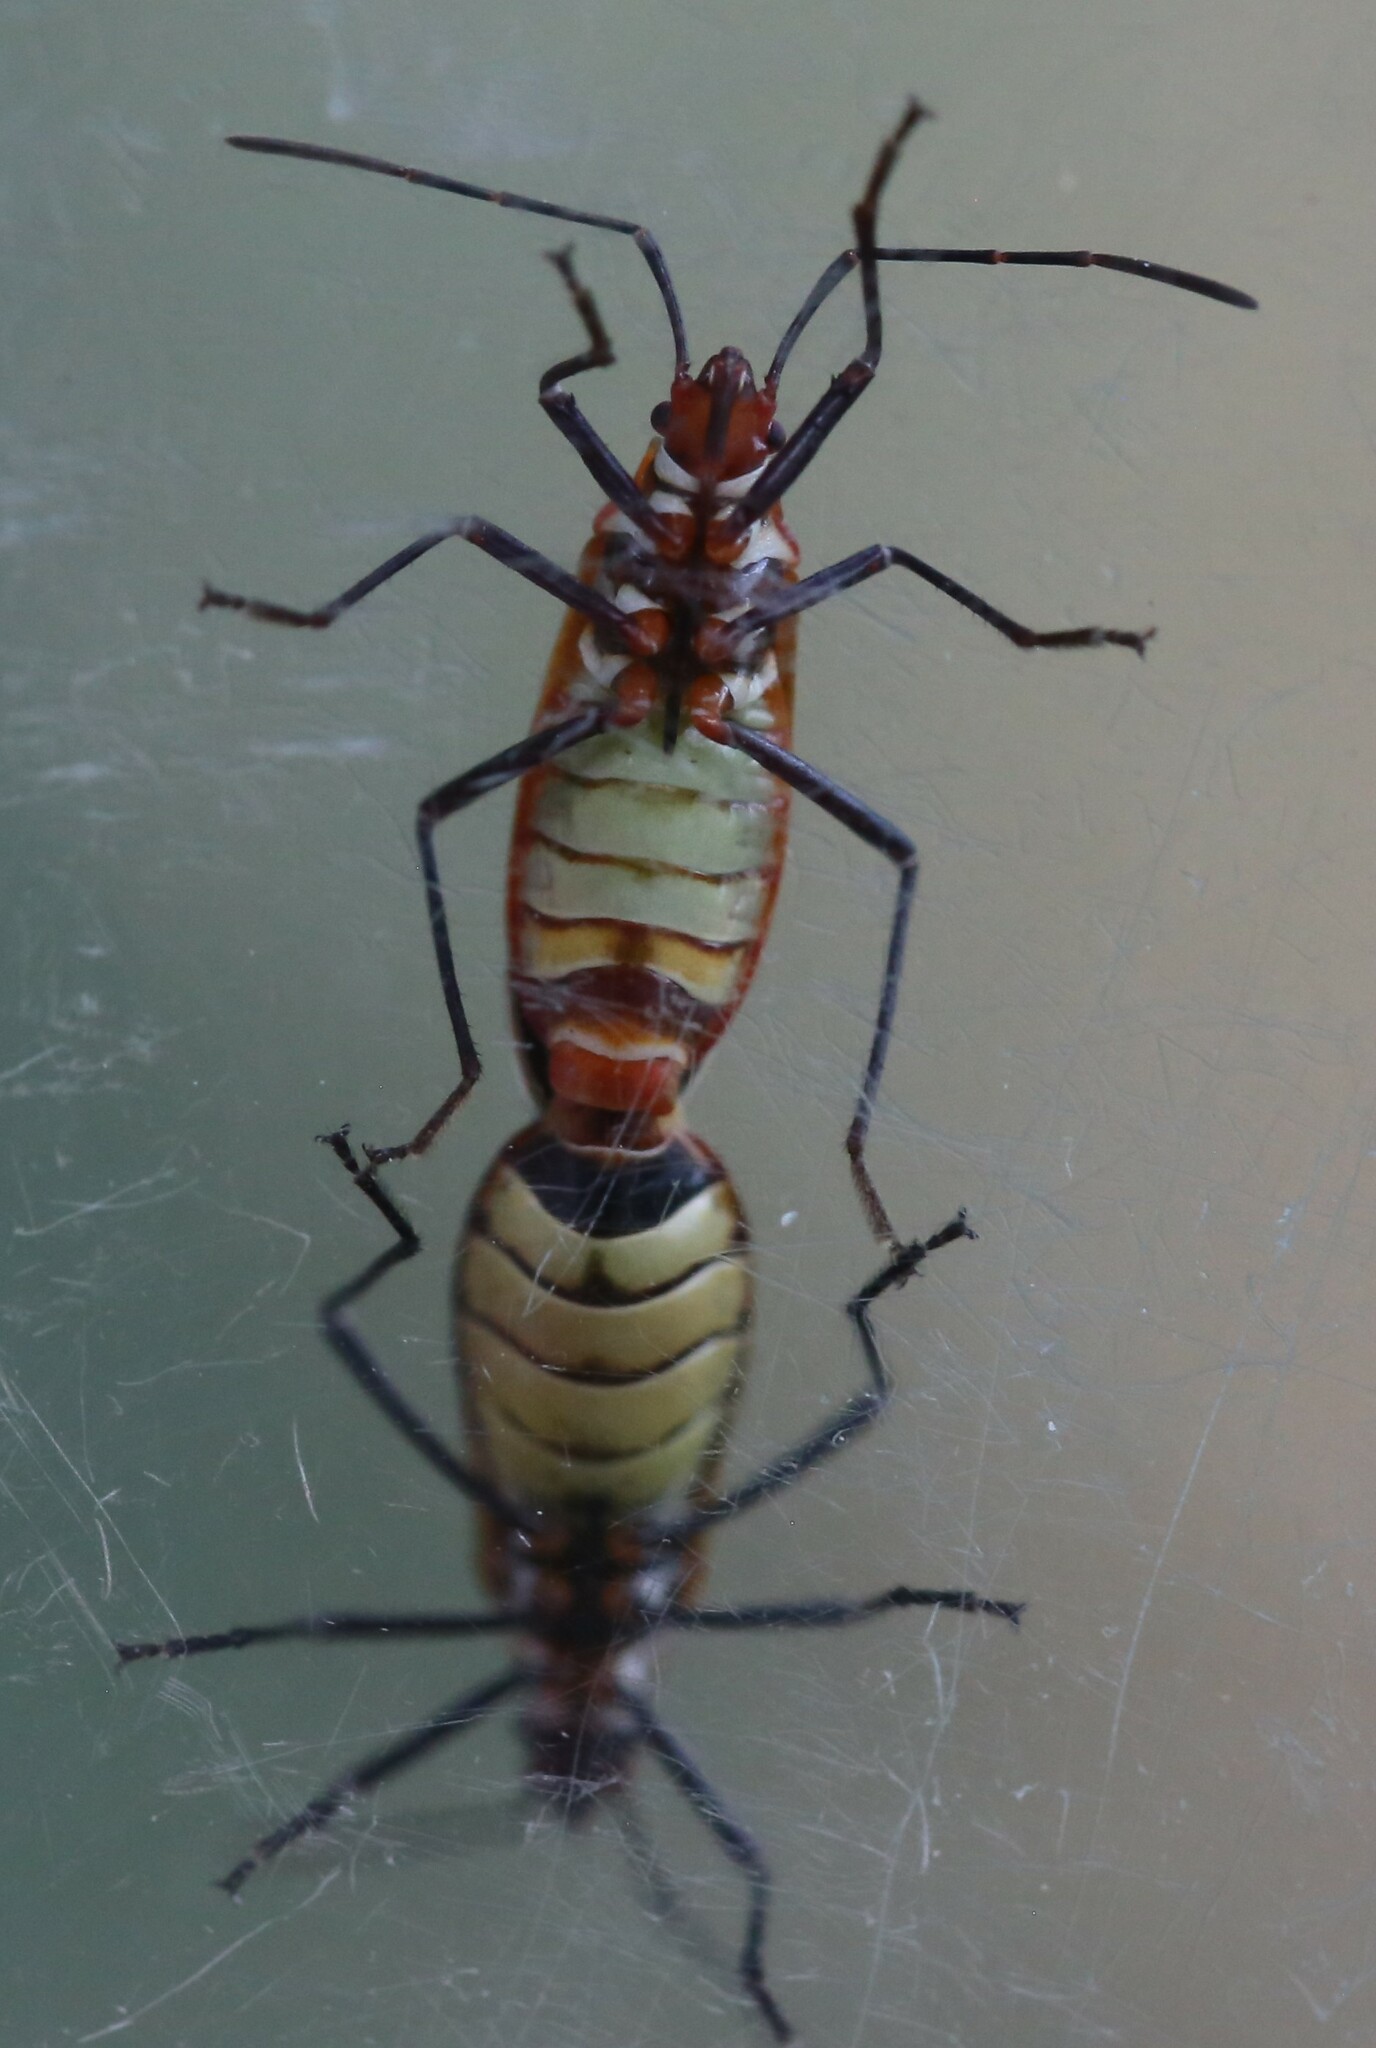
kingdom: Animalia
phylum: Arthropoda
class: Insecta
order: Hemiptera
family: Pyrrhocoridae
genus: Dysdercus
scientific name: Dysdercus sidae
